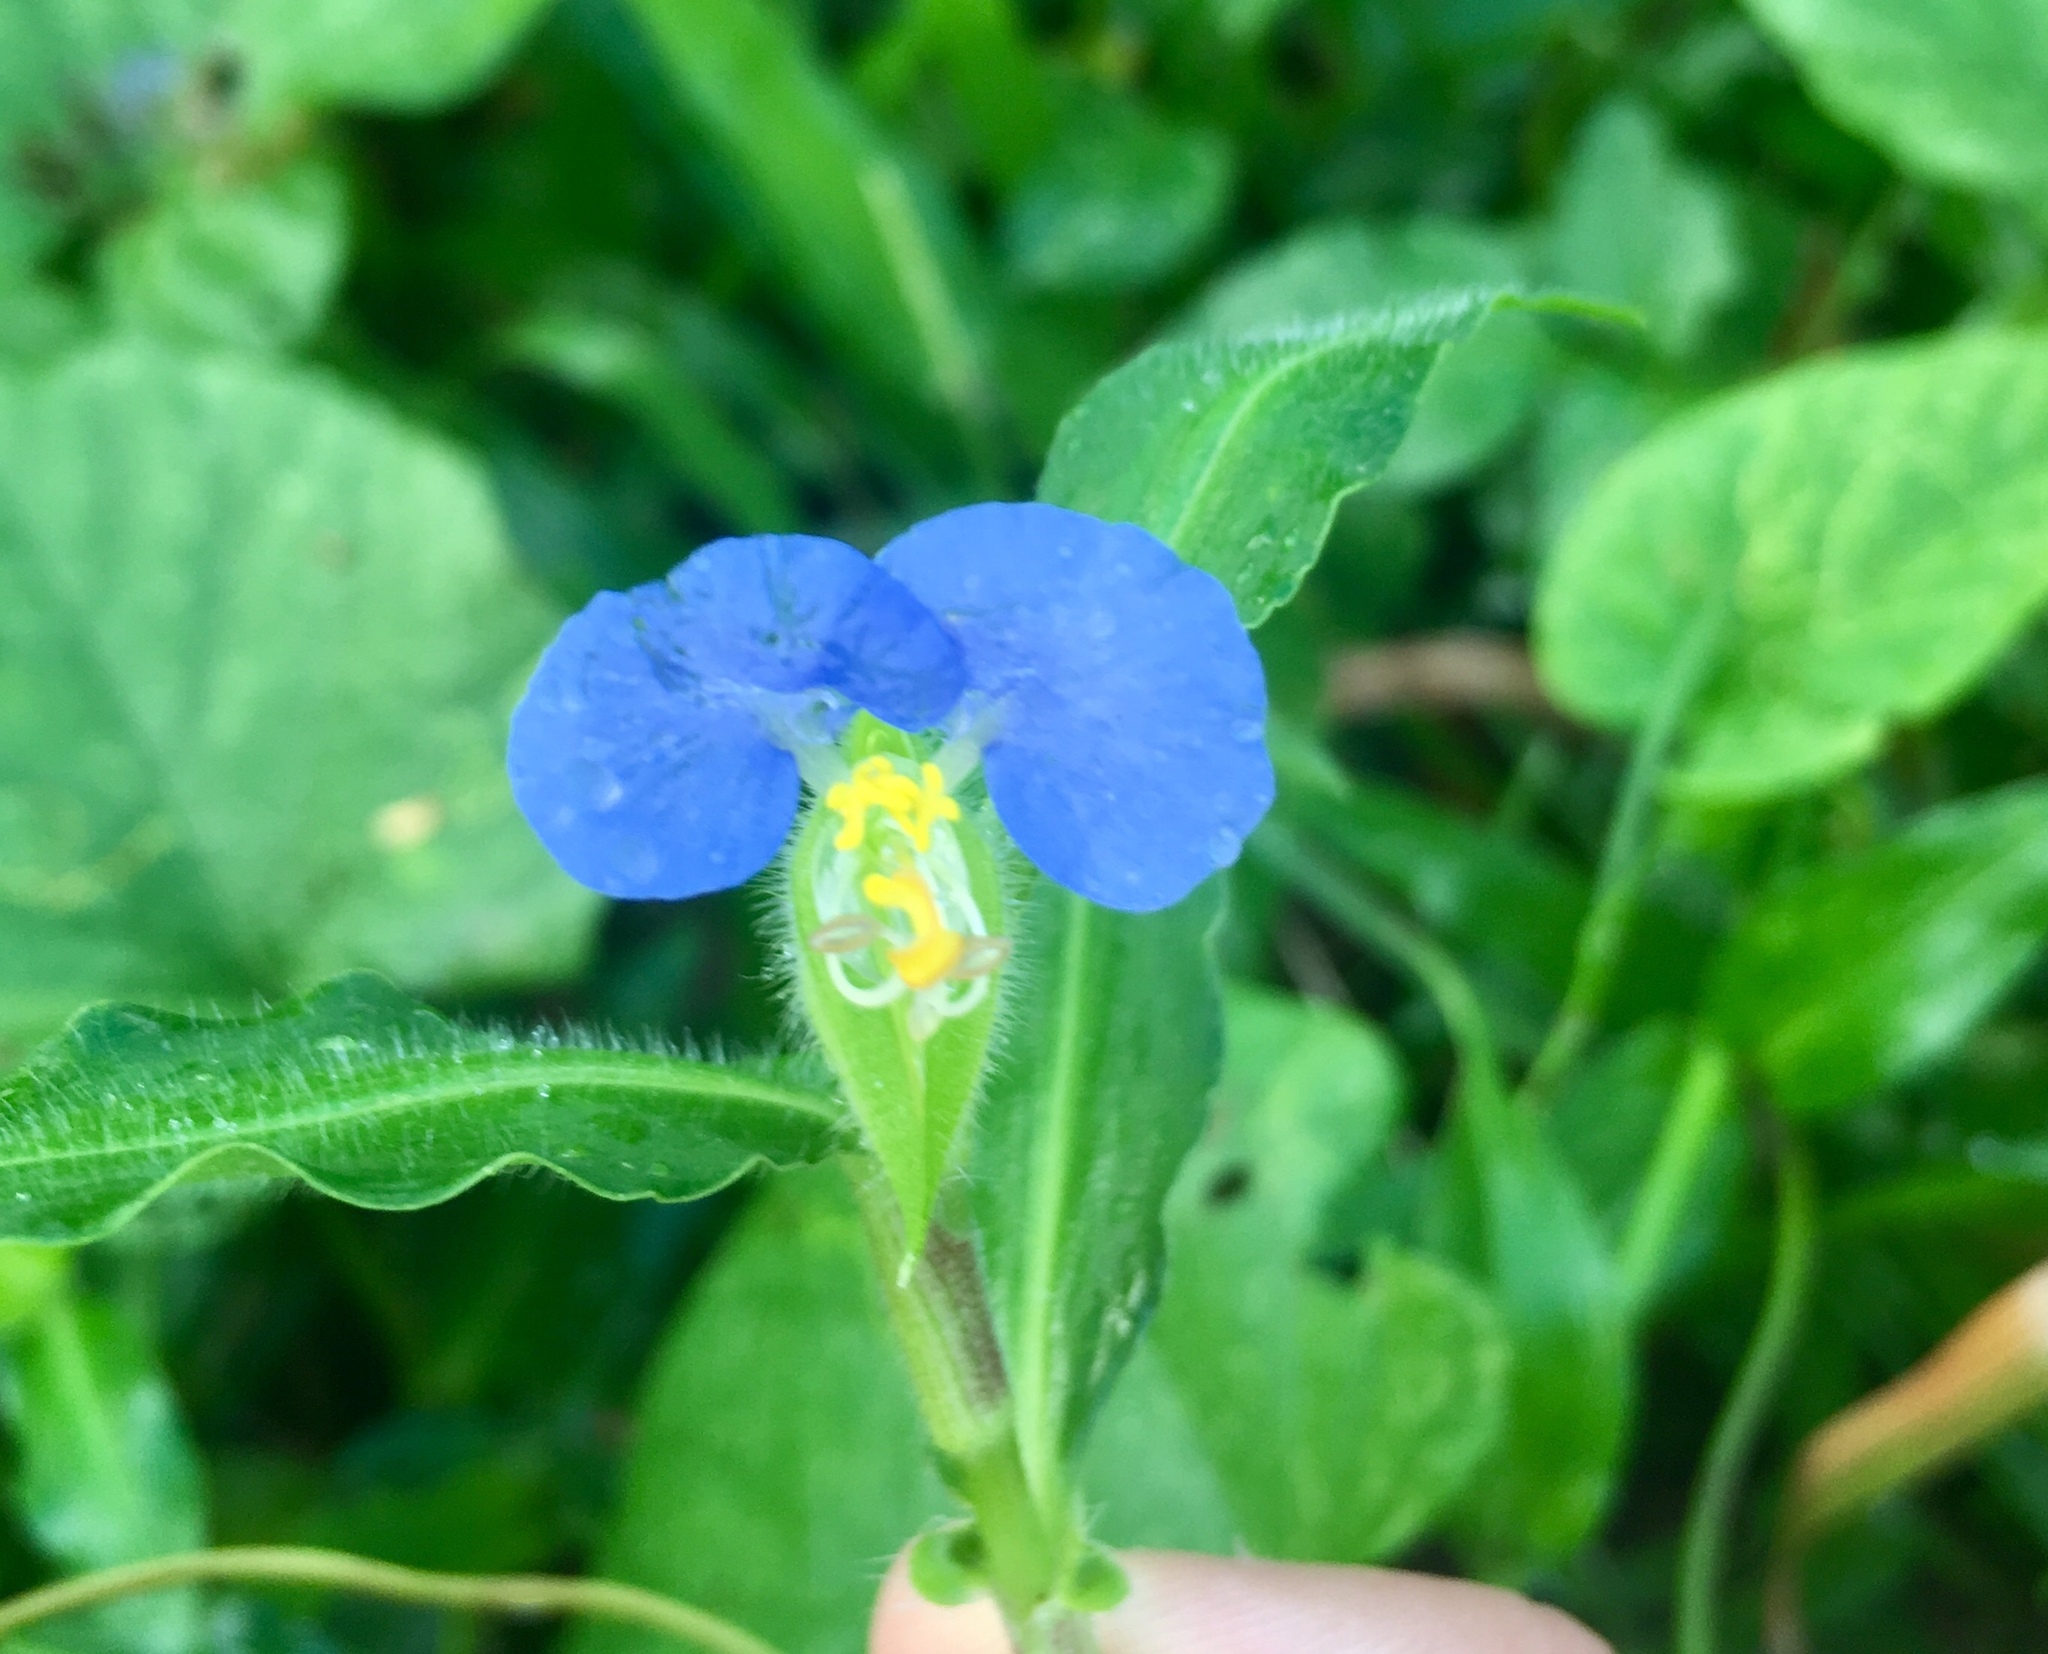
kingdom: Plantae
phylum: Tracheophyta
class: Liliopsida
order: Commelinales
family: Commelinaceae
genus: Commelina
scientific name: Commelina erecta
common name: Blousel blommetjie
